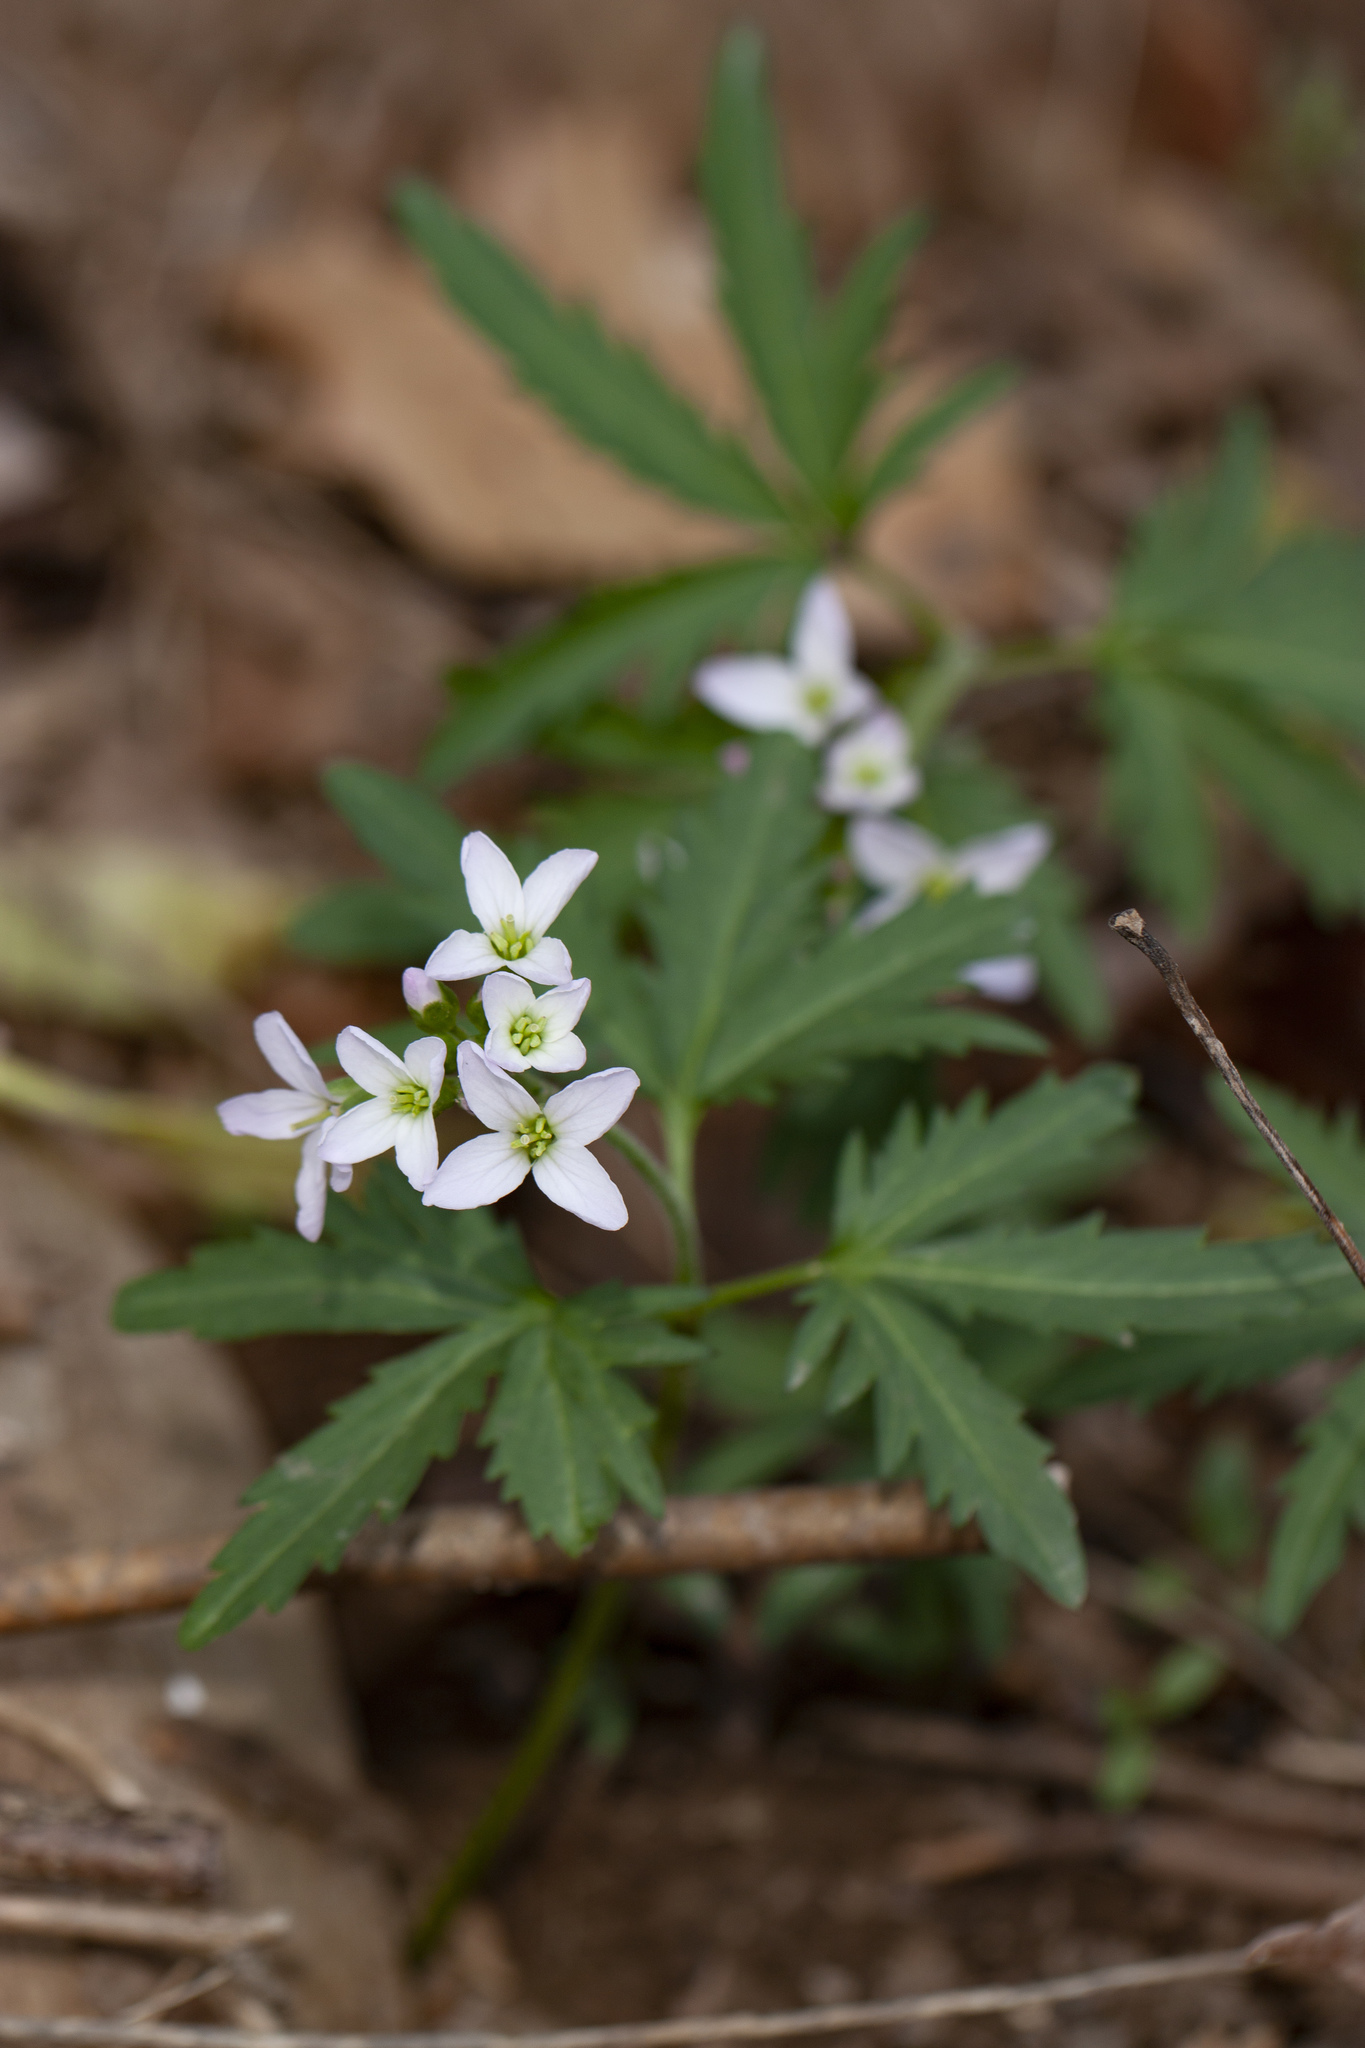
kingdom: Plantae
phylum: Tracheophyta
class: Magnoliopsida
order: Brassicales
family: Brassicaceae
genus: Cardamine
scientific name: Cardamine concatenata
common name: Cut-leaf toothcup
